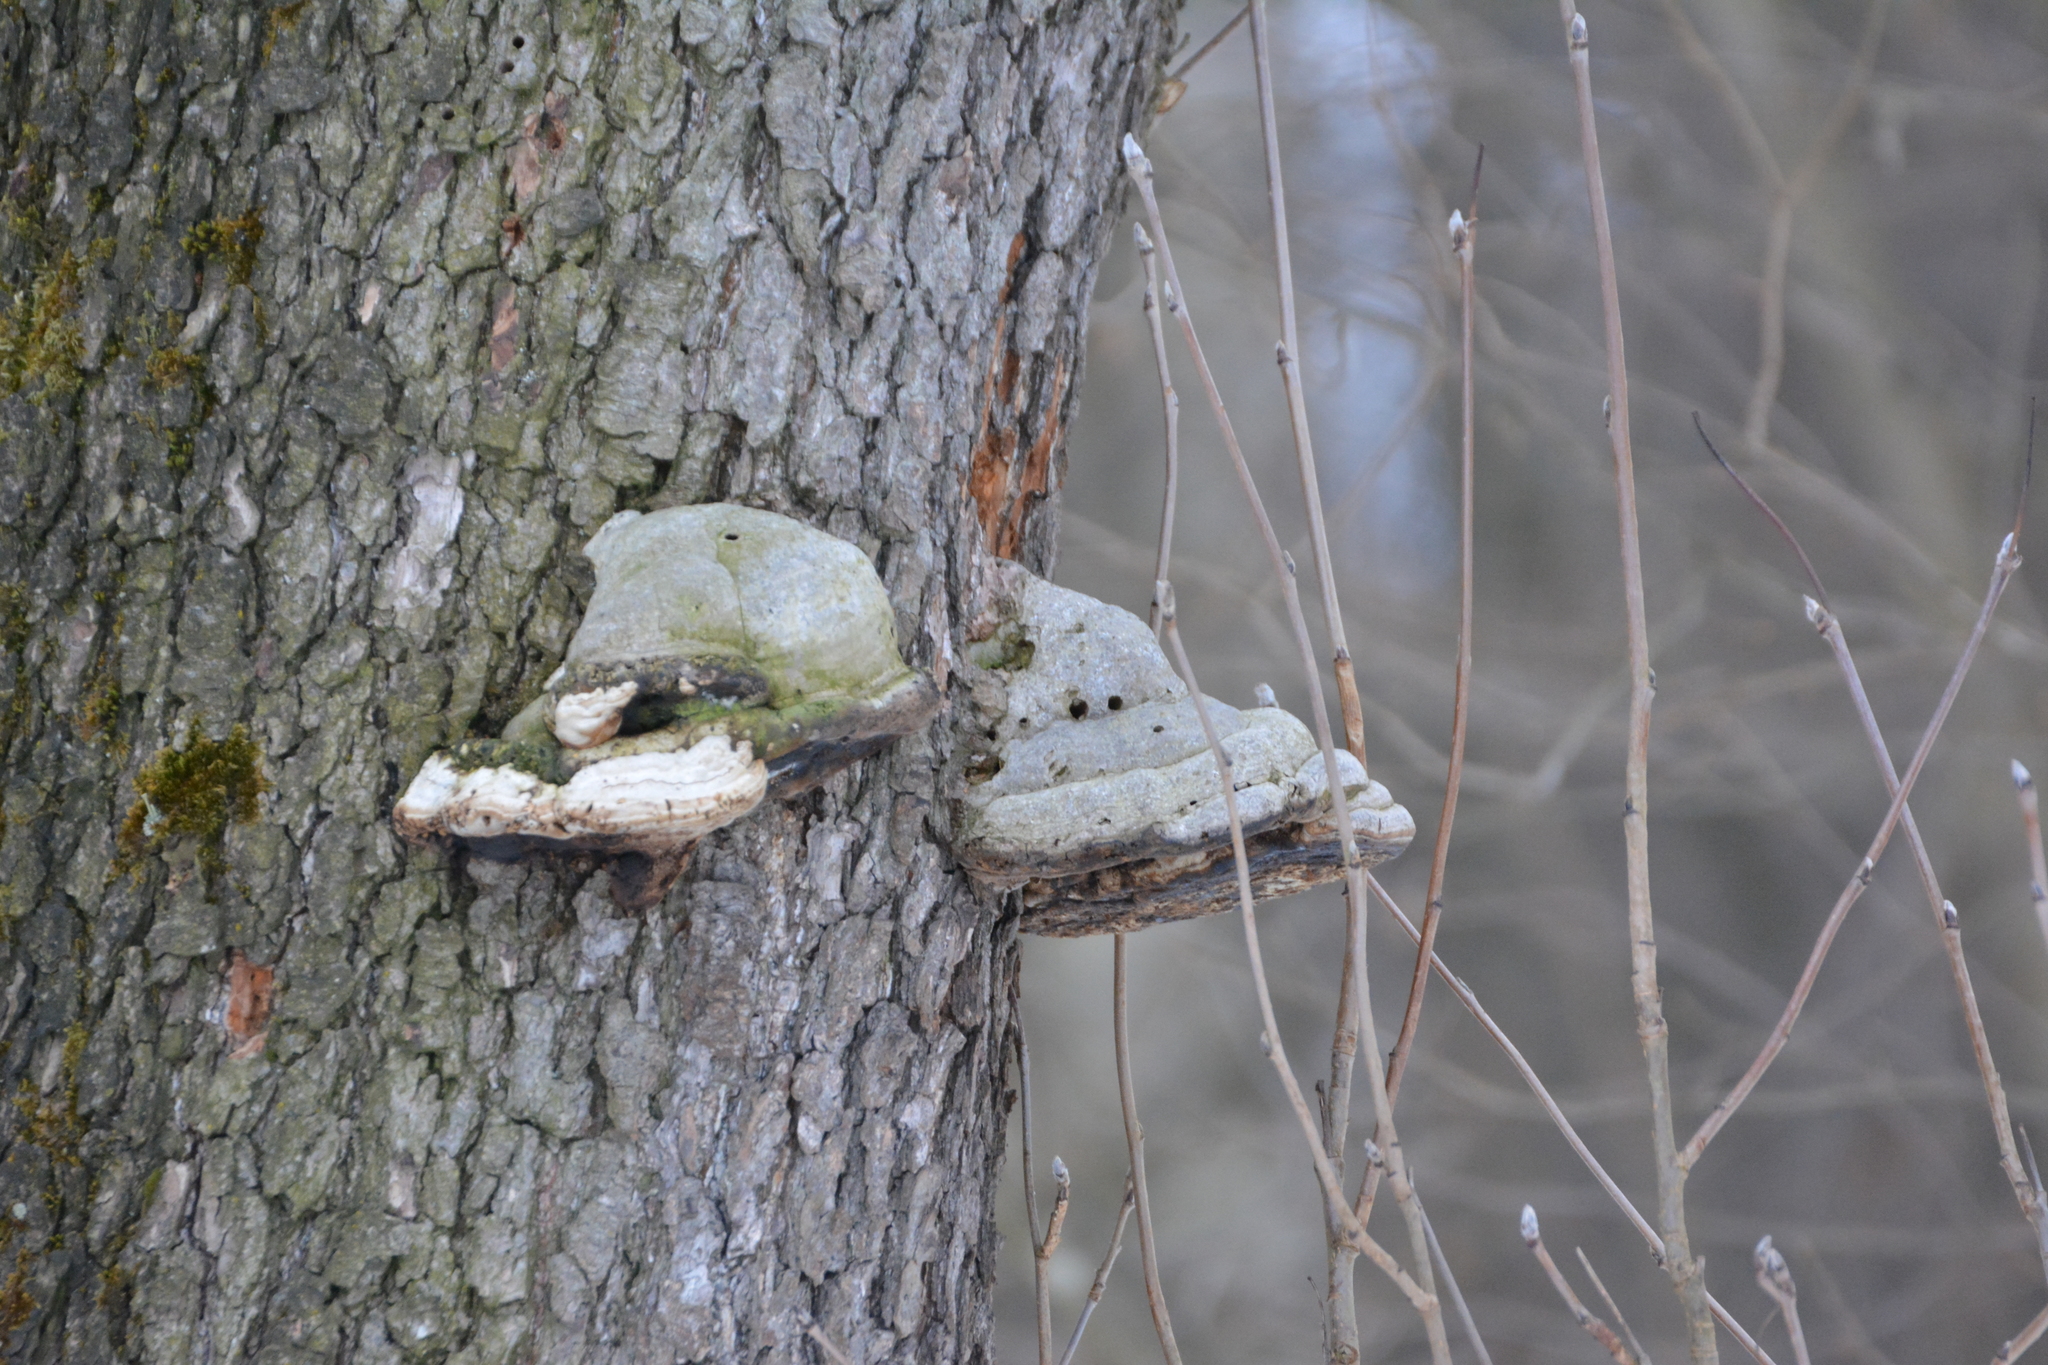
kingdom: Fungi
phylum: Basidiomycota
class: Agaricomycetes
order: Polyporales
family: Polyporaceae
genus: Fomes
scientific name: Fomes fomentarius
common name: Hoof fungus
